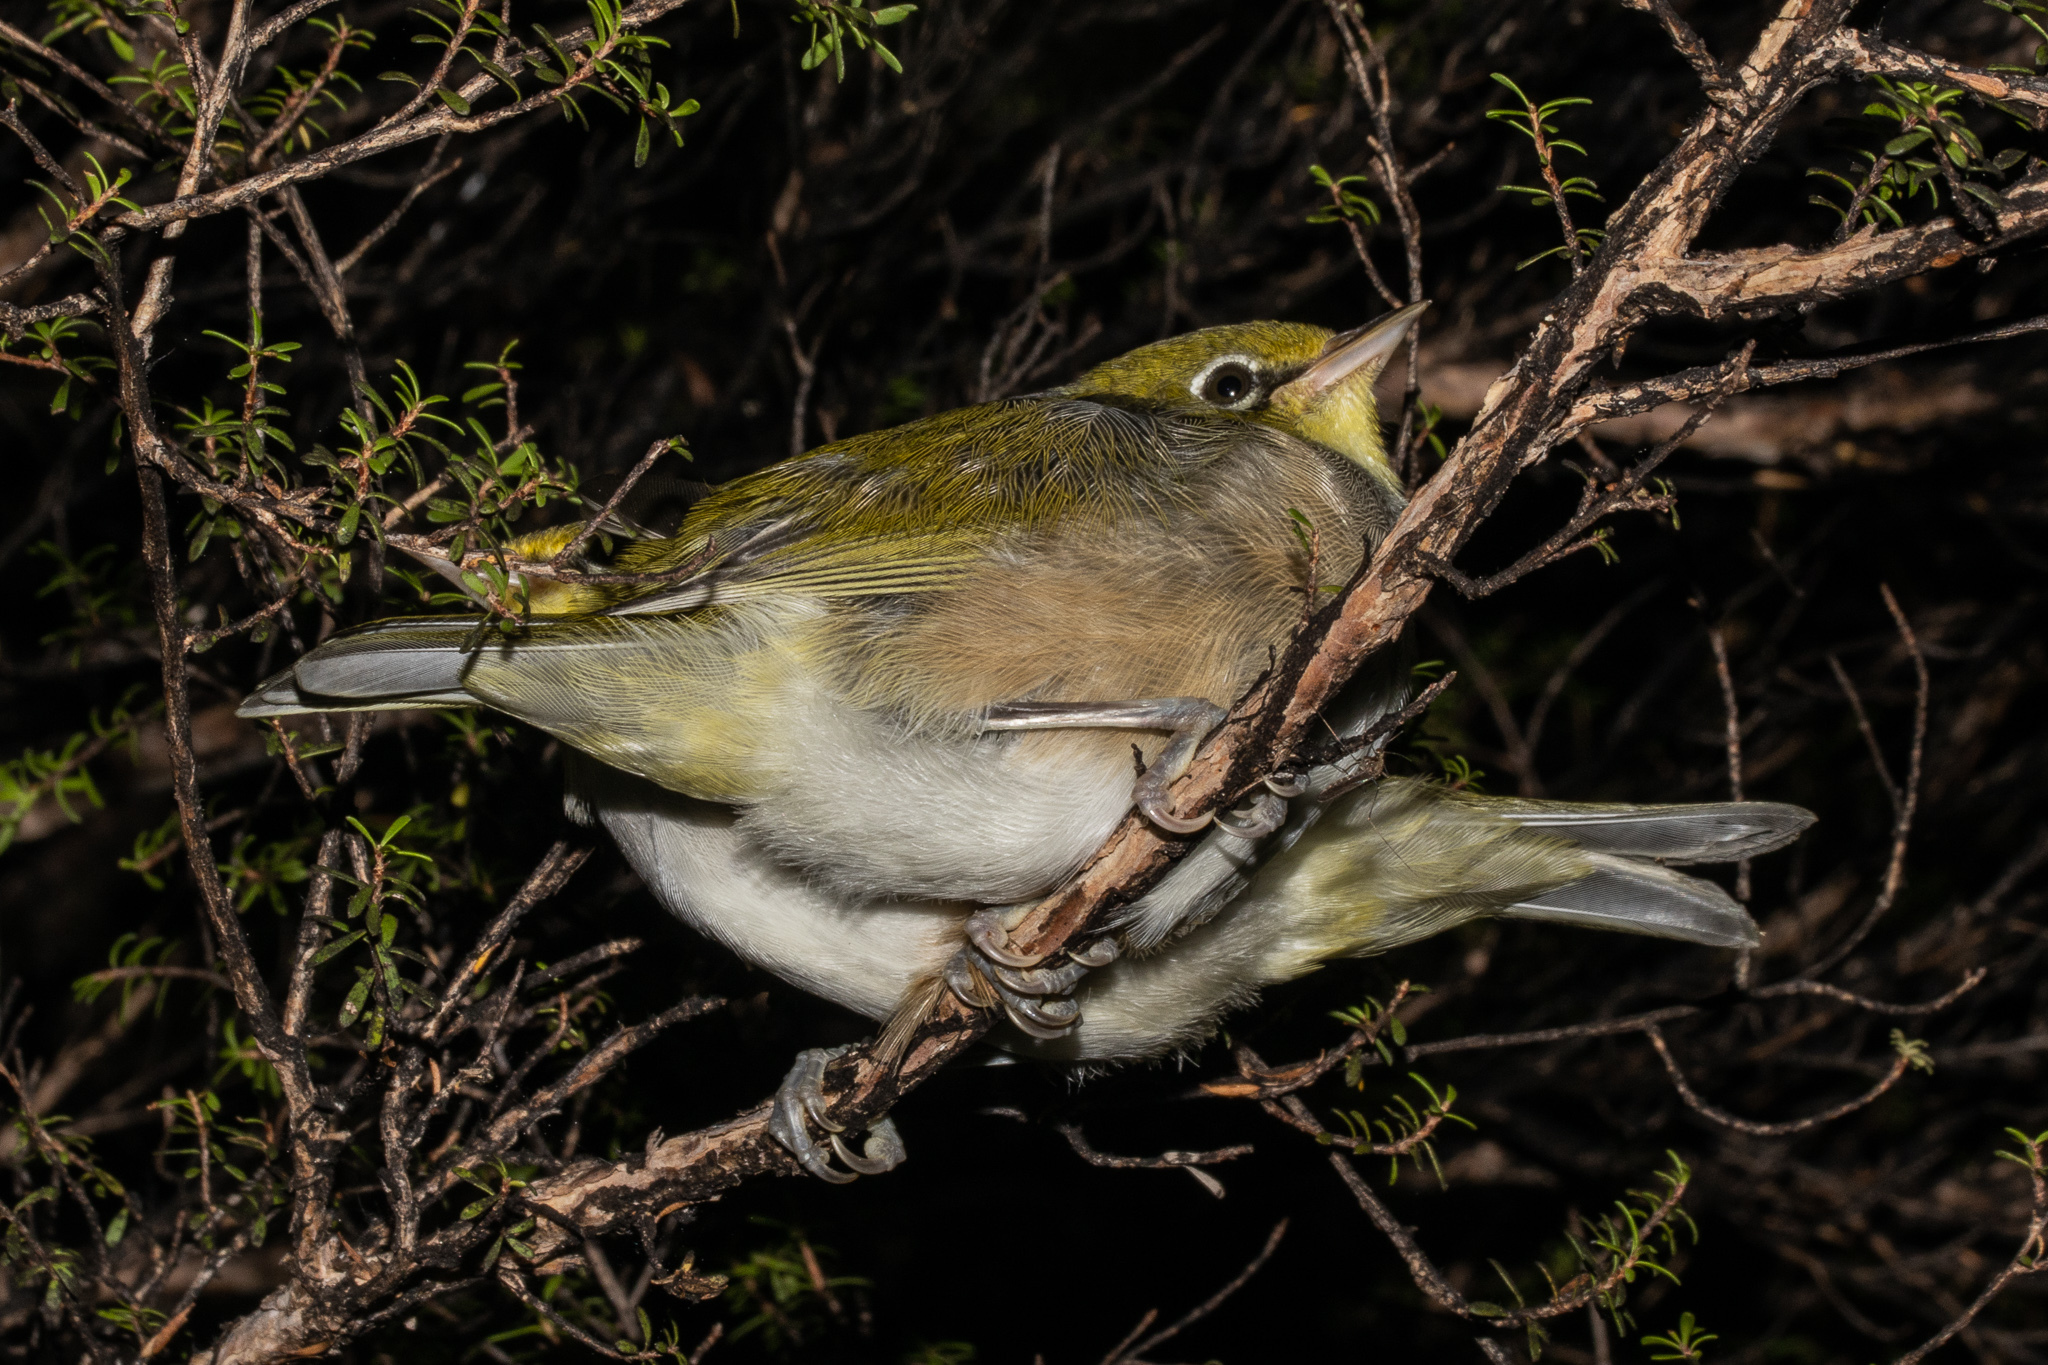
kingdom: Animalia
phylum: Chordata
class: Aves
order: Passeriformes
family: Zosteropidae
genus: Zosterops
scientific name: Zosterops lateralis
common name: Silvereye
